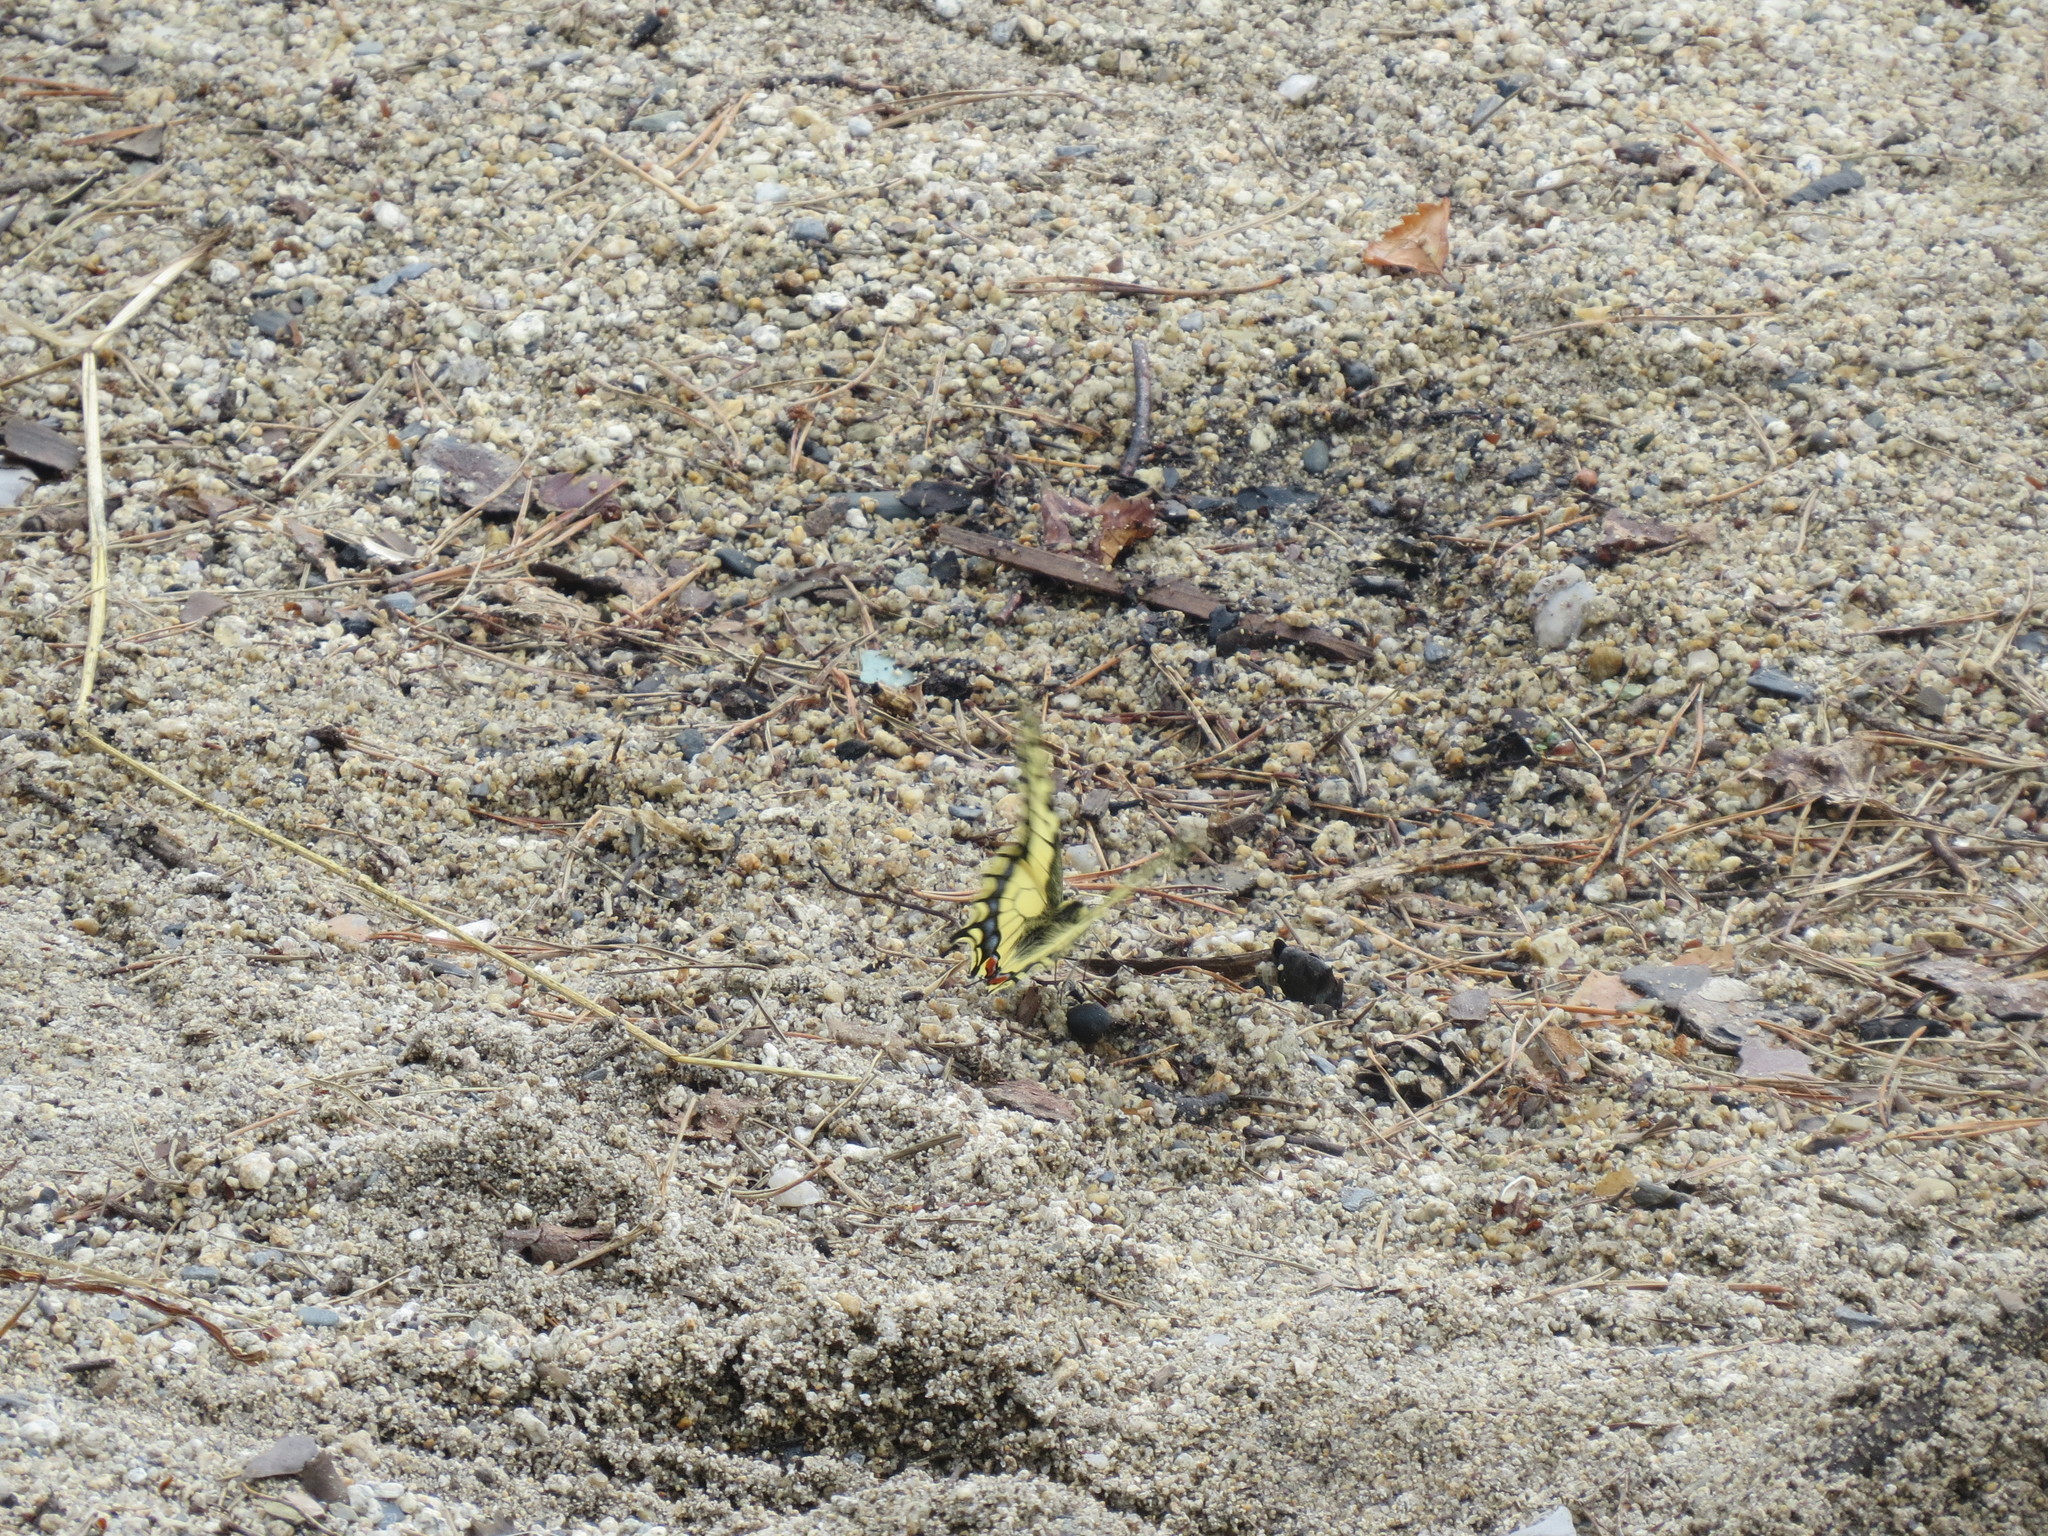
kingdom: Animalia
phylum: Arthropoda
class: Insecta
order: Lepidoptera
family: Papilionidae
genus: Papilio
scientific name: Papilio machaon
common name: Swallowtail
